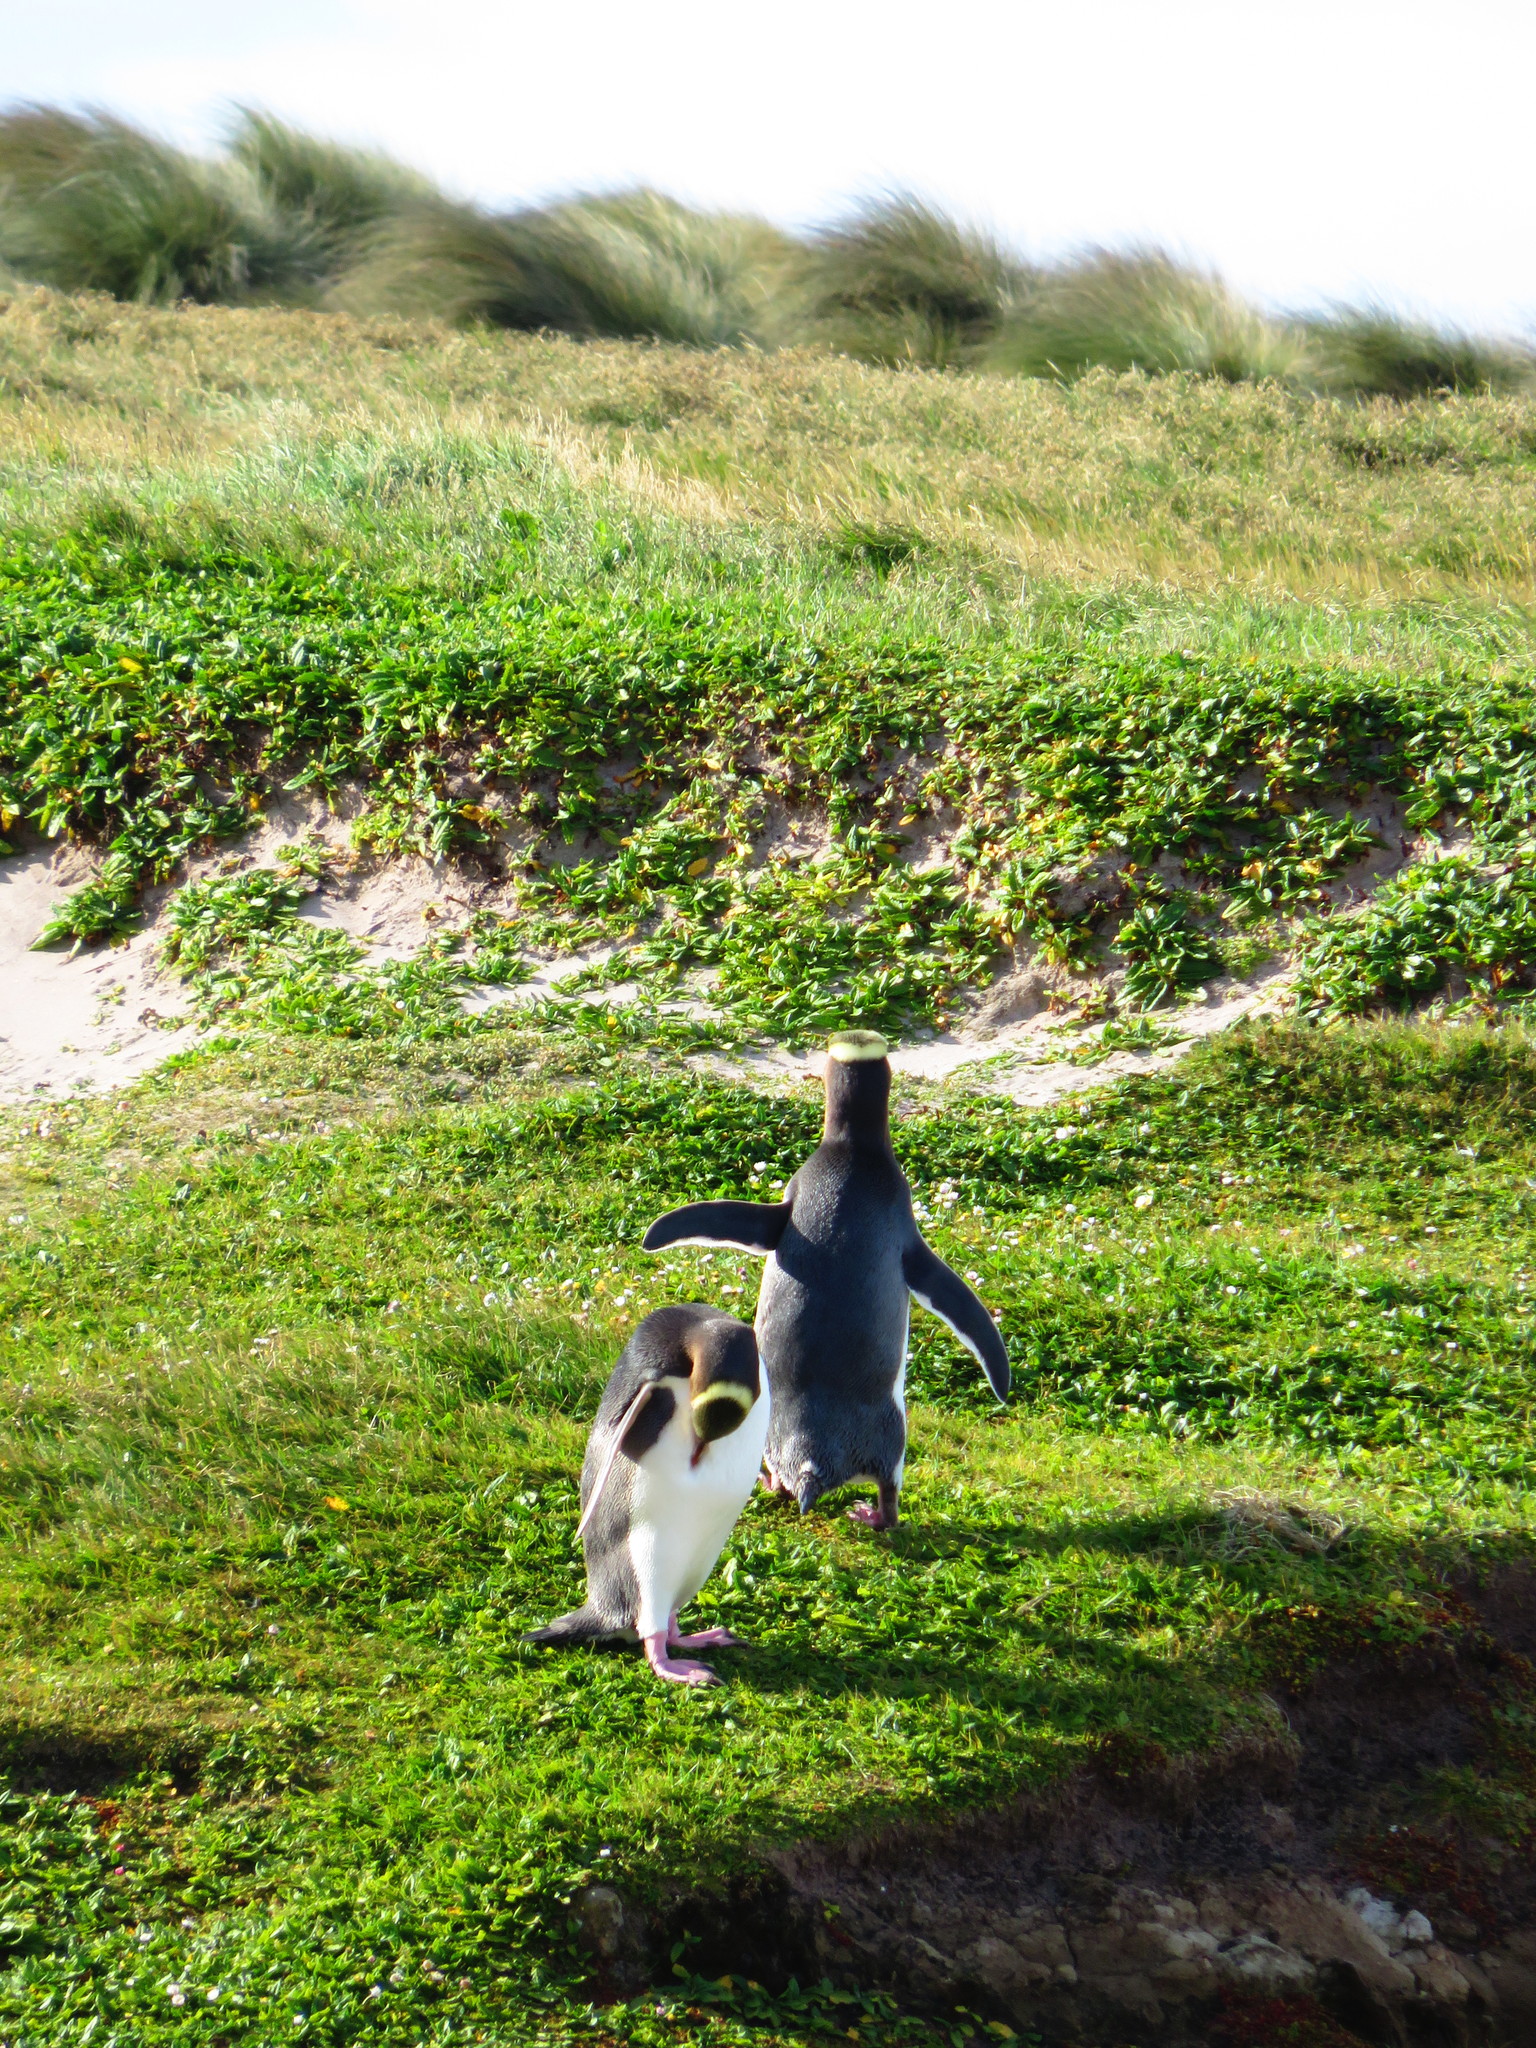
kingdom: Animalia
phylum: Chordata
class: Aves
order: Sphenisciformes
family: Spheniscidae
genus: Megadyptes
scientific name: Megadyptes antipodes
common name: Yellow-eyed penguin
